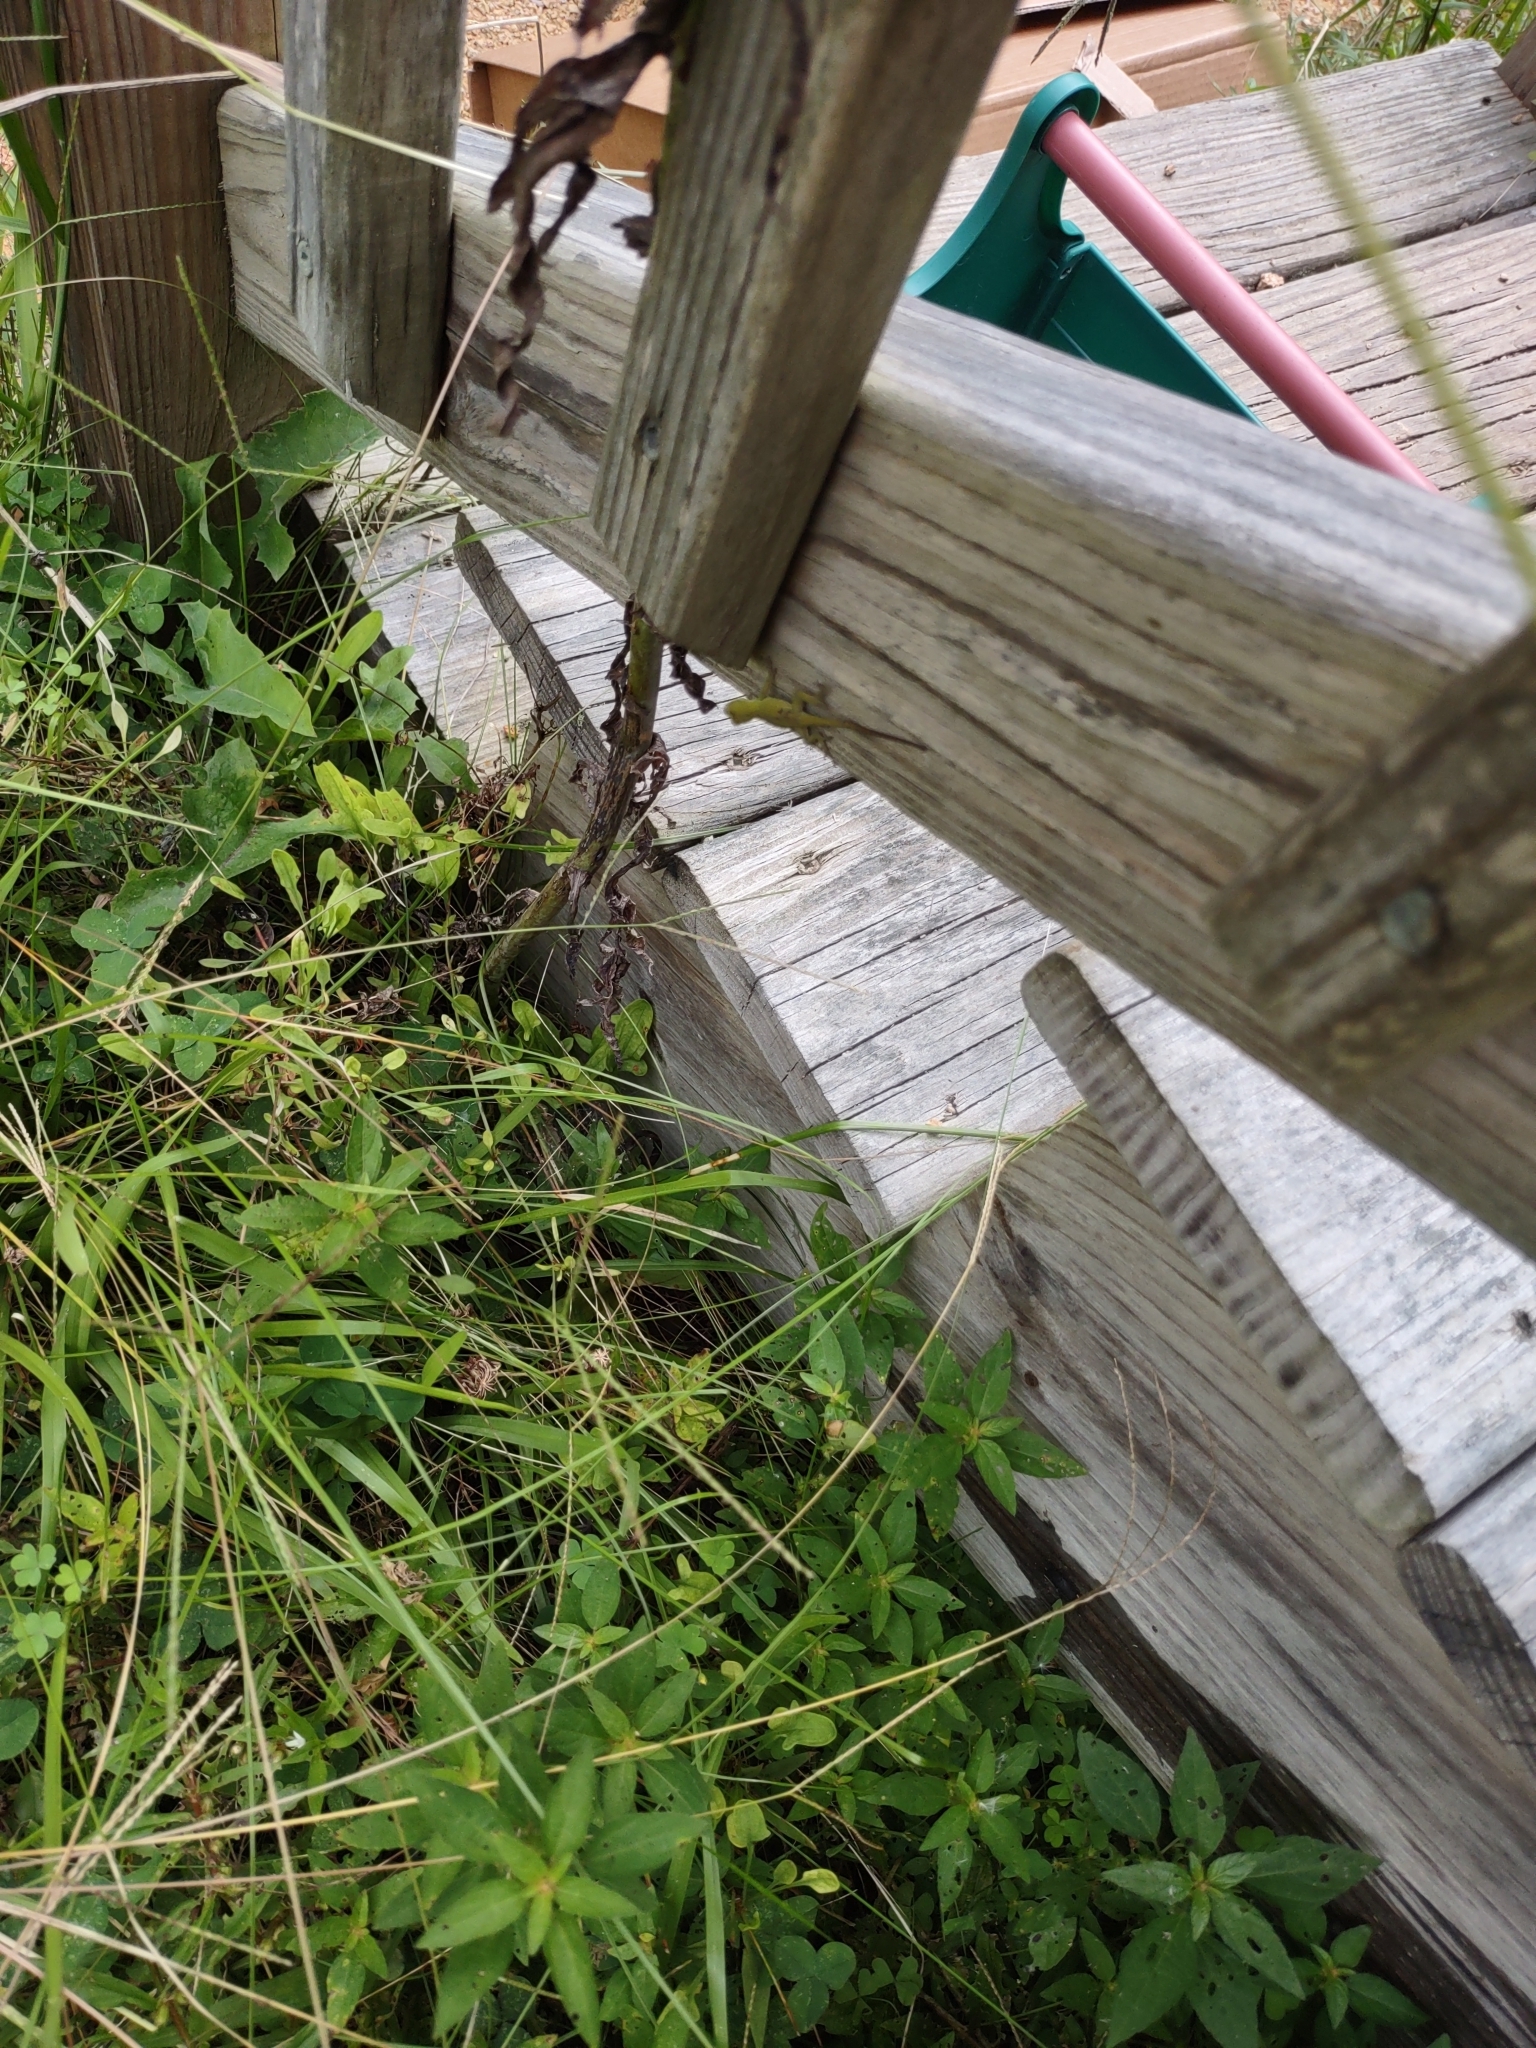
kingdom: Animalia
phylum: Chordata
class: Squamata
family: Dactyloidae
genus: Anolis
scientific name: Anolis carolinensis
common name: Green anole
